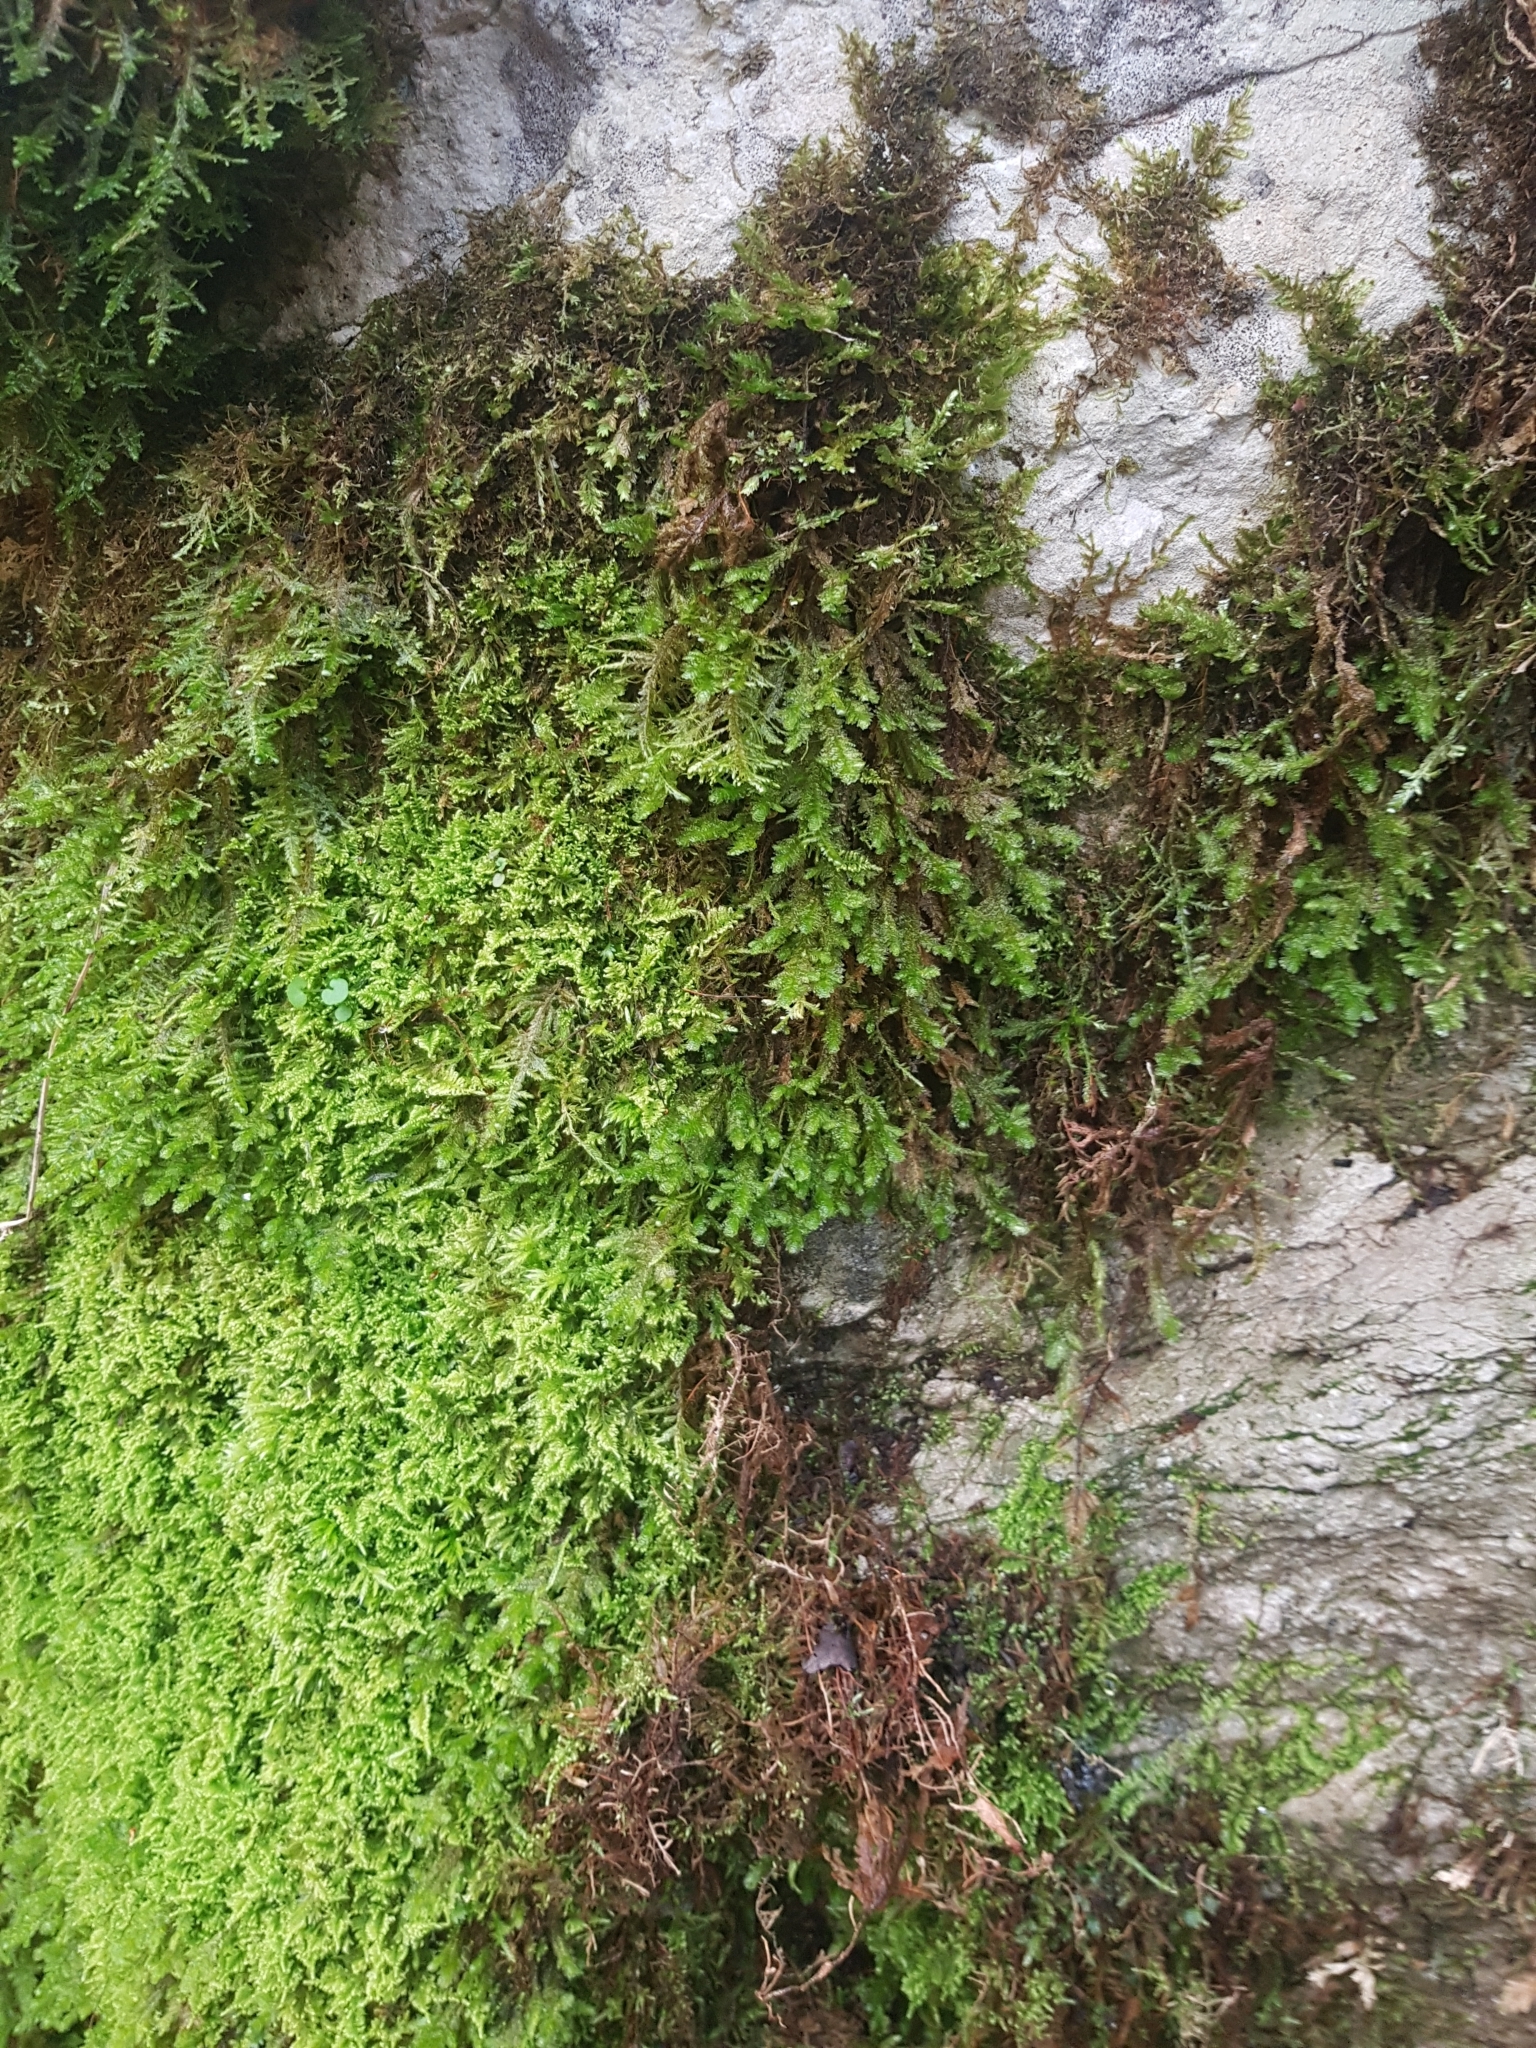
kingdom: Plantae
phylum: Bryophyta
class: Bryopsida
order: Hypnales
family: Myuriaceae
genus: Ctenidium
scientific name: Ctenidium molluscum
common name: Chalk comb-moss
